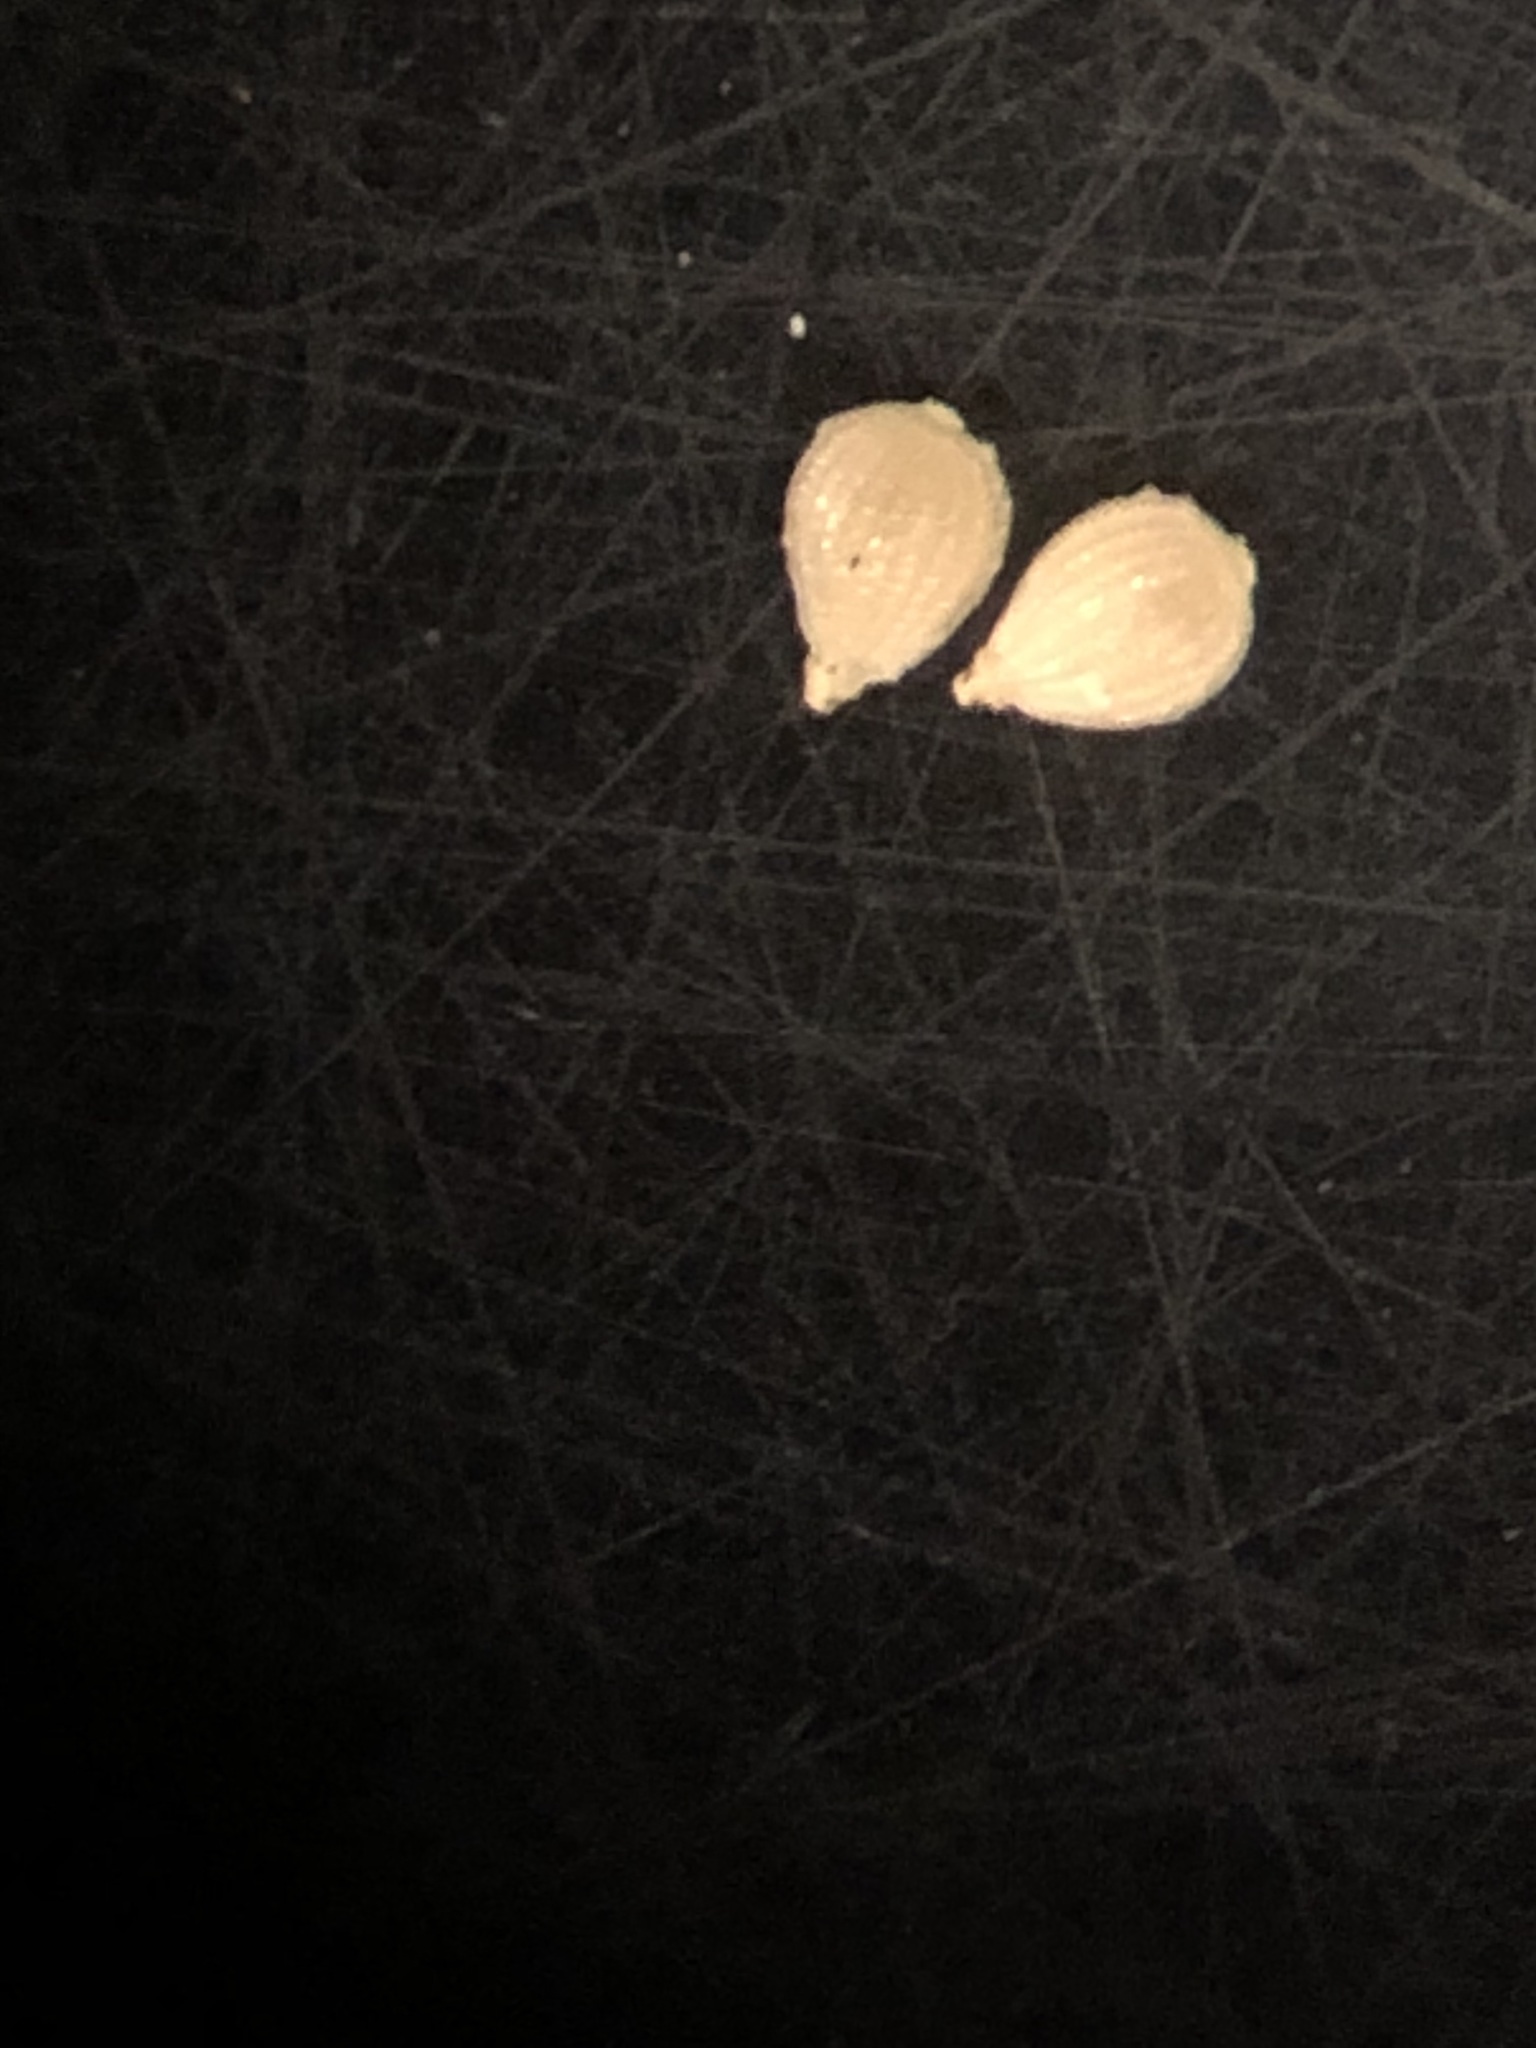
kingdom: Plantae
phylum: Tracheophyta
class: Liliopsida
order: Poales
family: Cyperaceae
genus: Fimbristylis
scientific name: Fimbristylis decipiens
